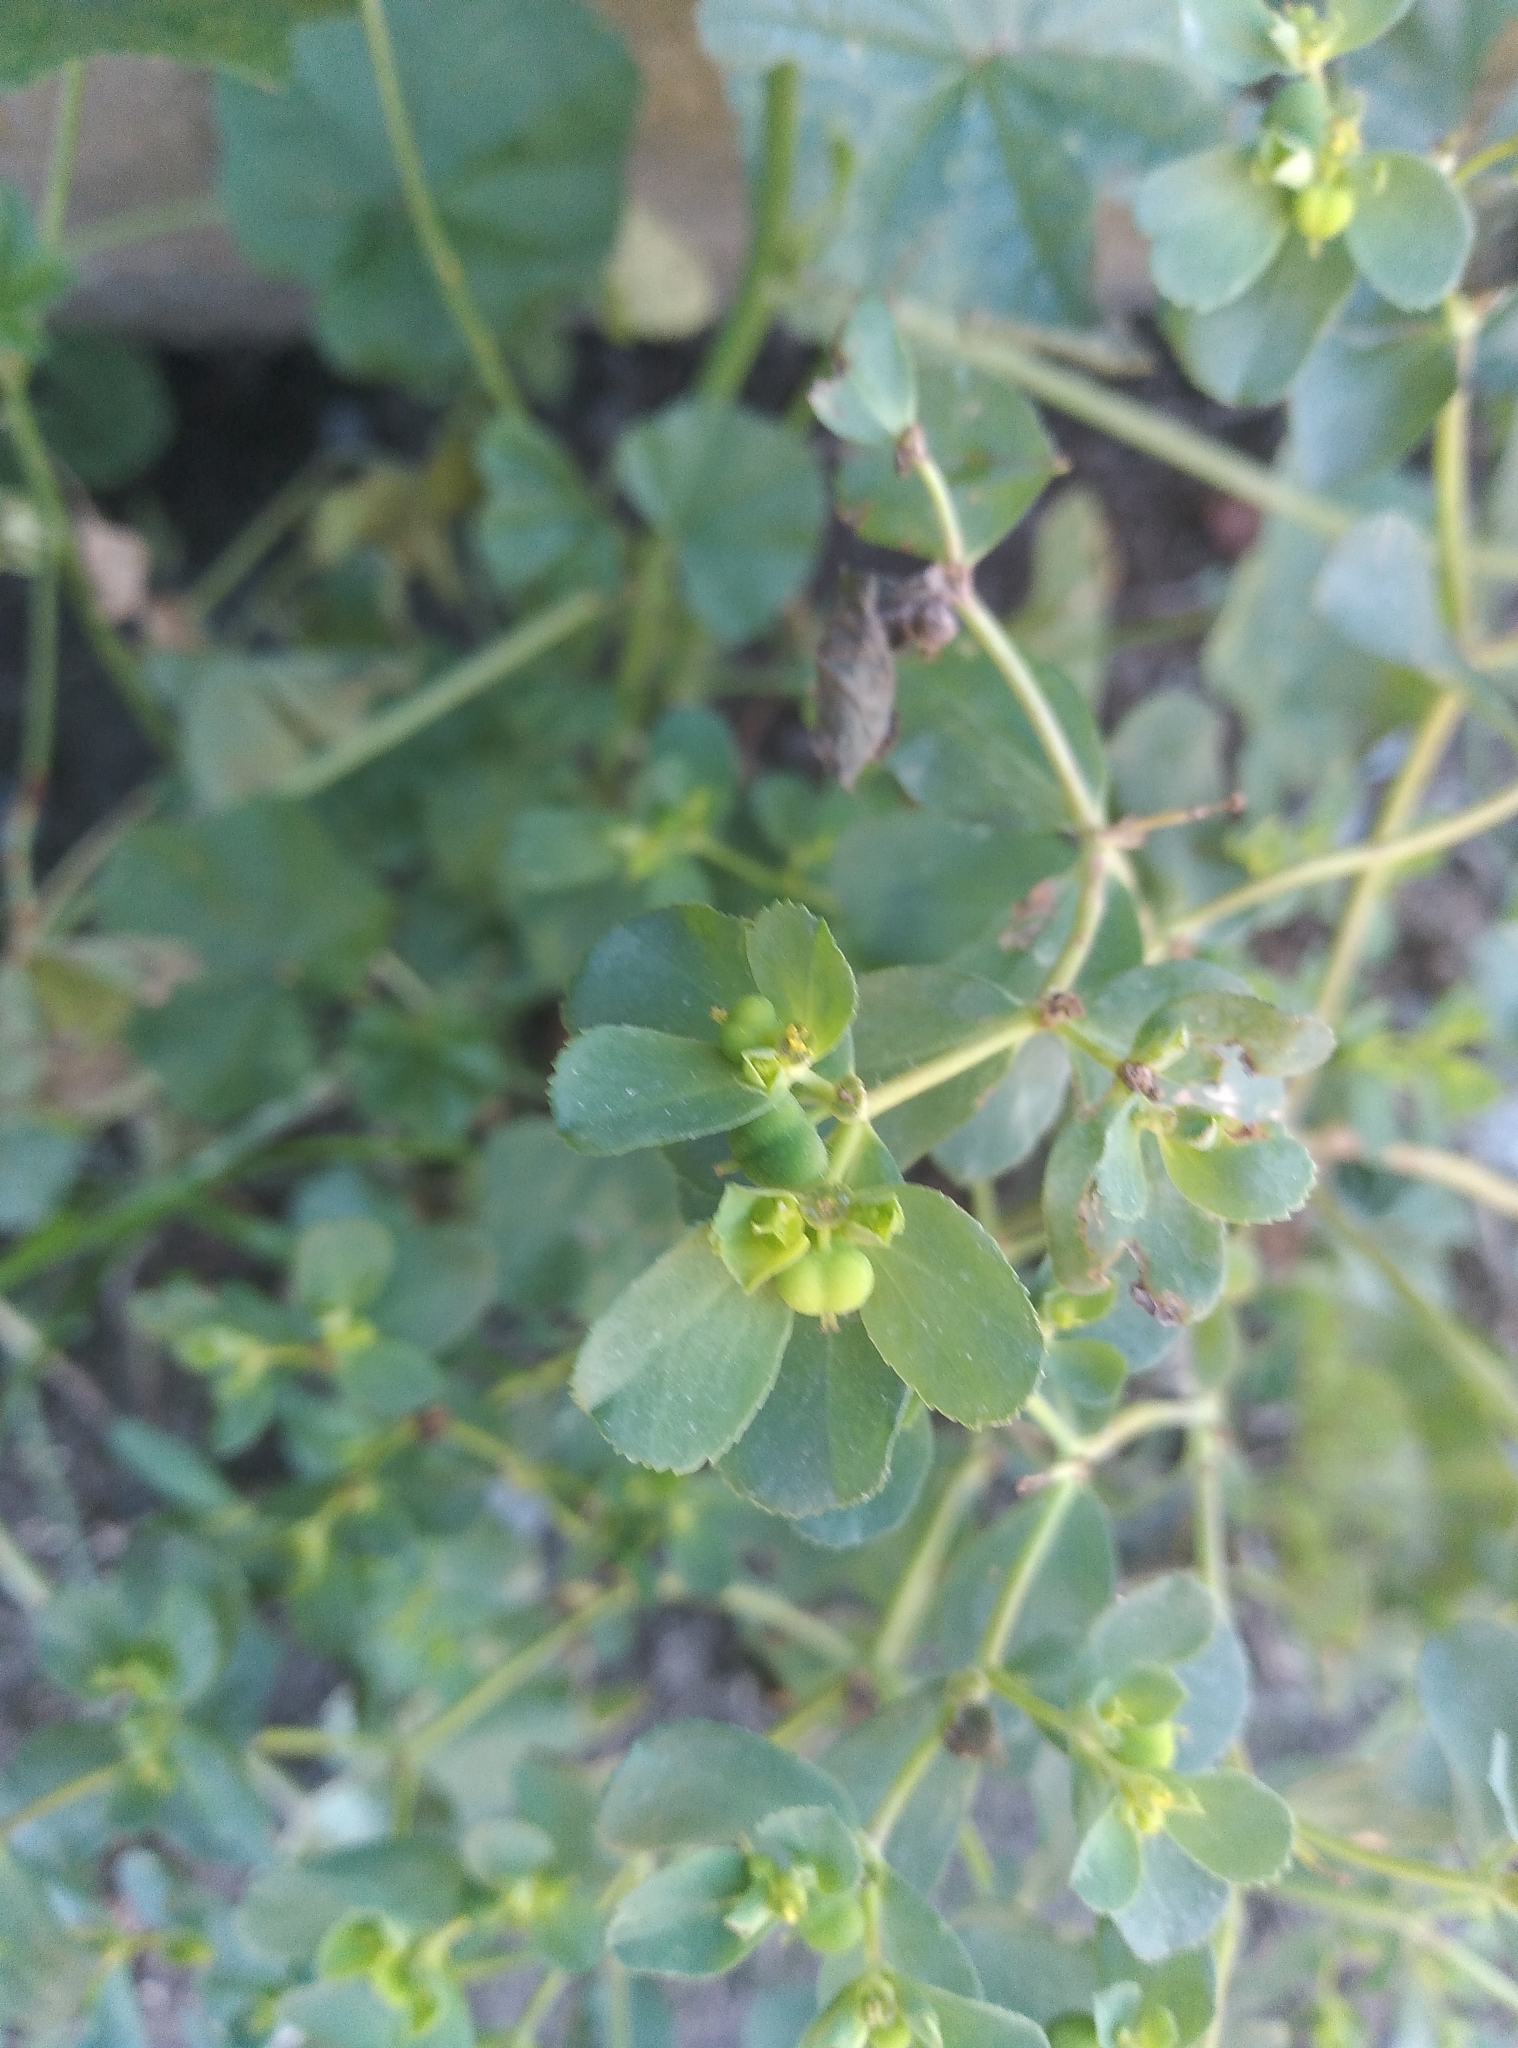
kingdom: Plantae
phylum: Tracheophyta
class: Magnoliopsida
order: Malpighiales
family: Euphorbiaceae
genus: Euphorbia
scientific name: Euphorbia helioscopia
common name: Sun spurge
